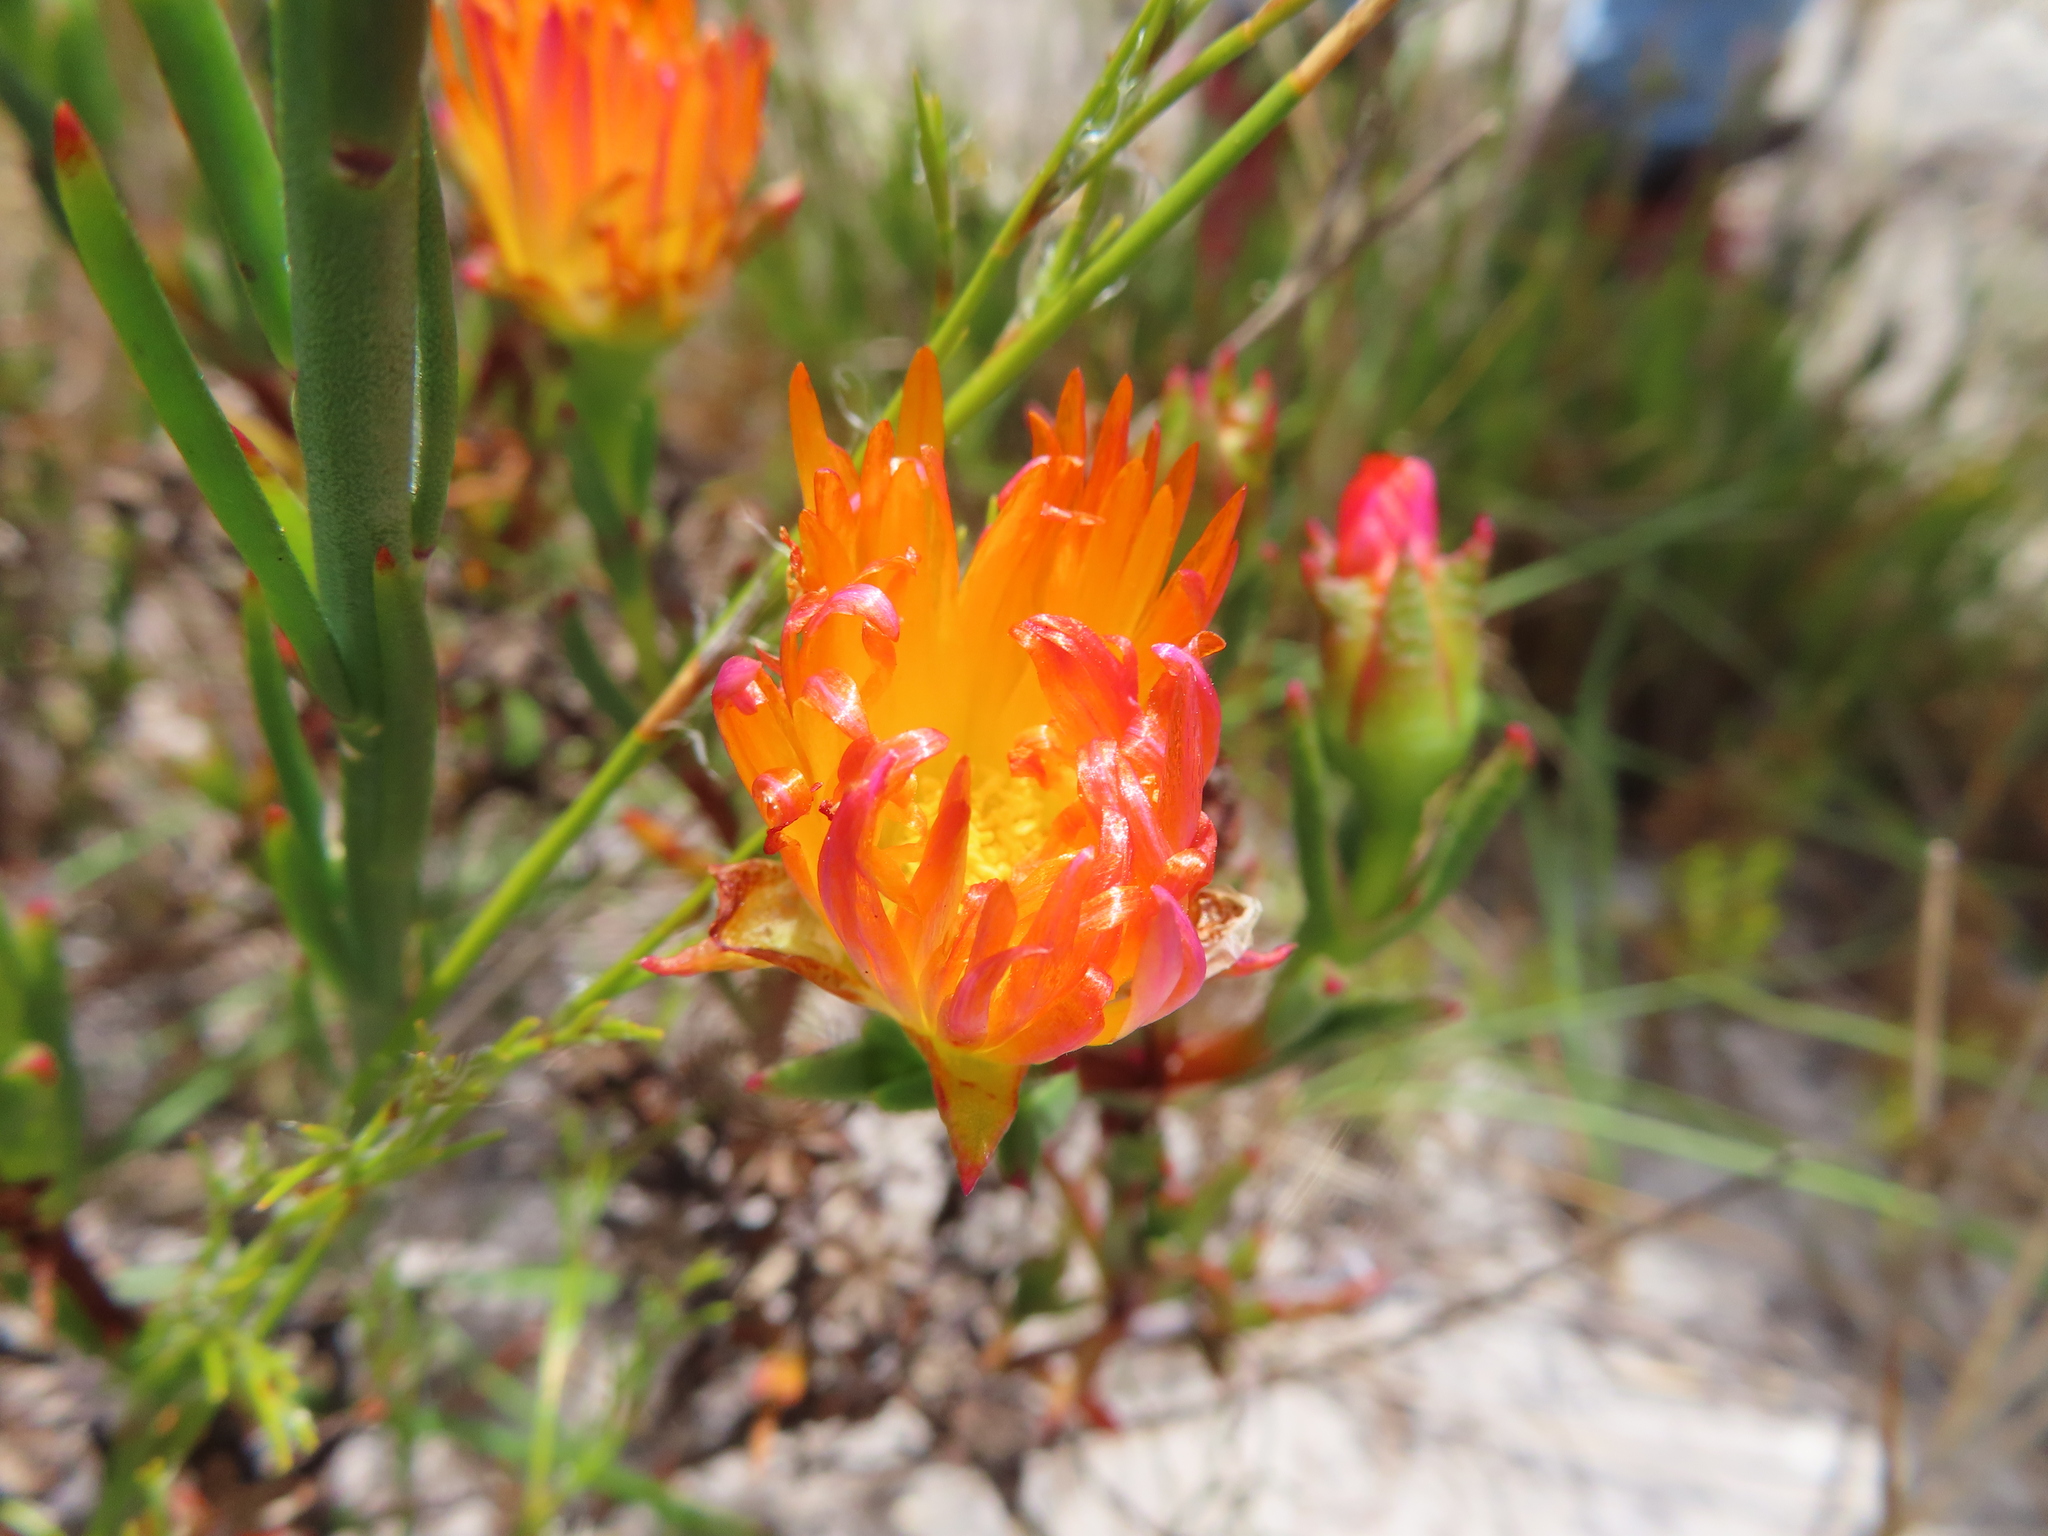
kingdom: Plantae
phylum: Tracheophyta
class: Magnoliopsida
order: Caryophyllales
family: Aizoaceae
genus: Lampranthus
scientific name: Lampranthus fergusoniae
